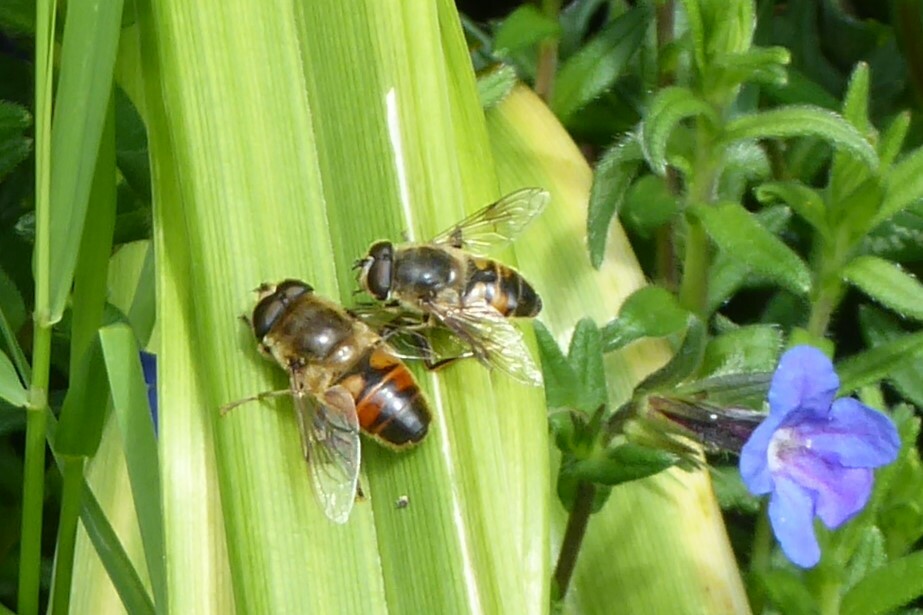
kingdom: Animalia
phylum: Arthropoda
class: Insecta
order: Diptera
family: Syrphidae
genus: Eristalis
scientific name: Eristalis tenax
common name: Drone fly
